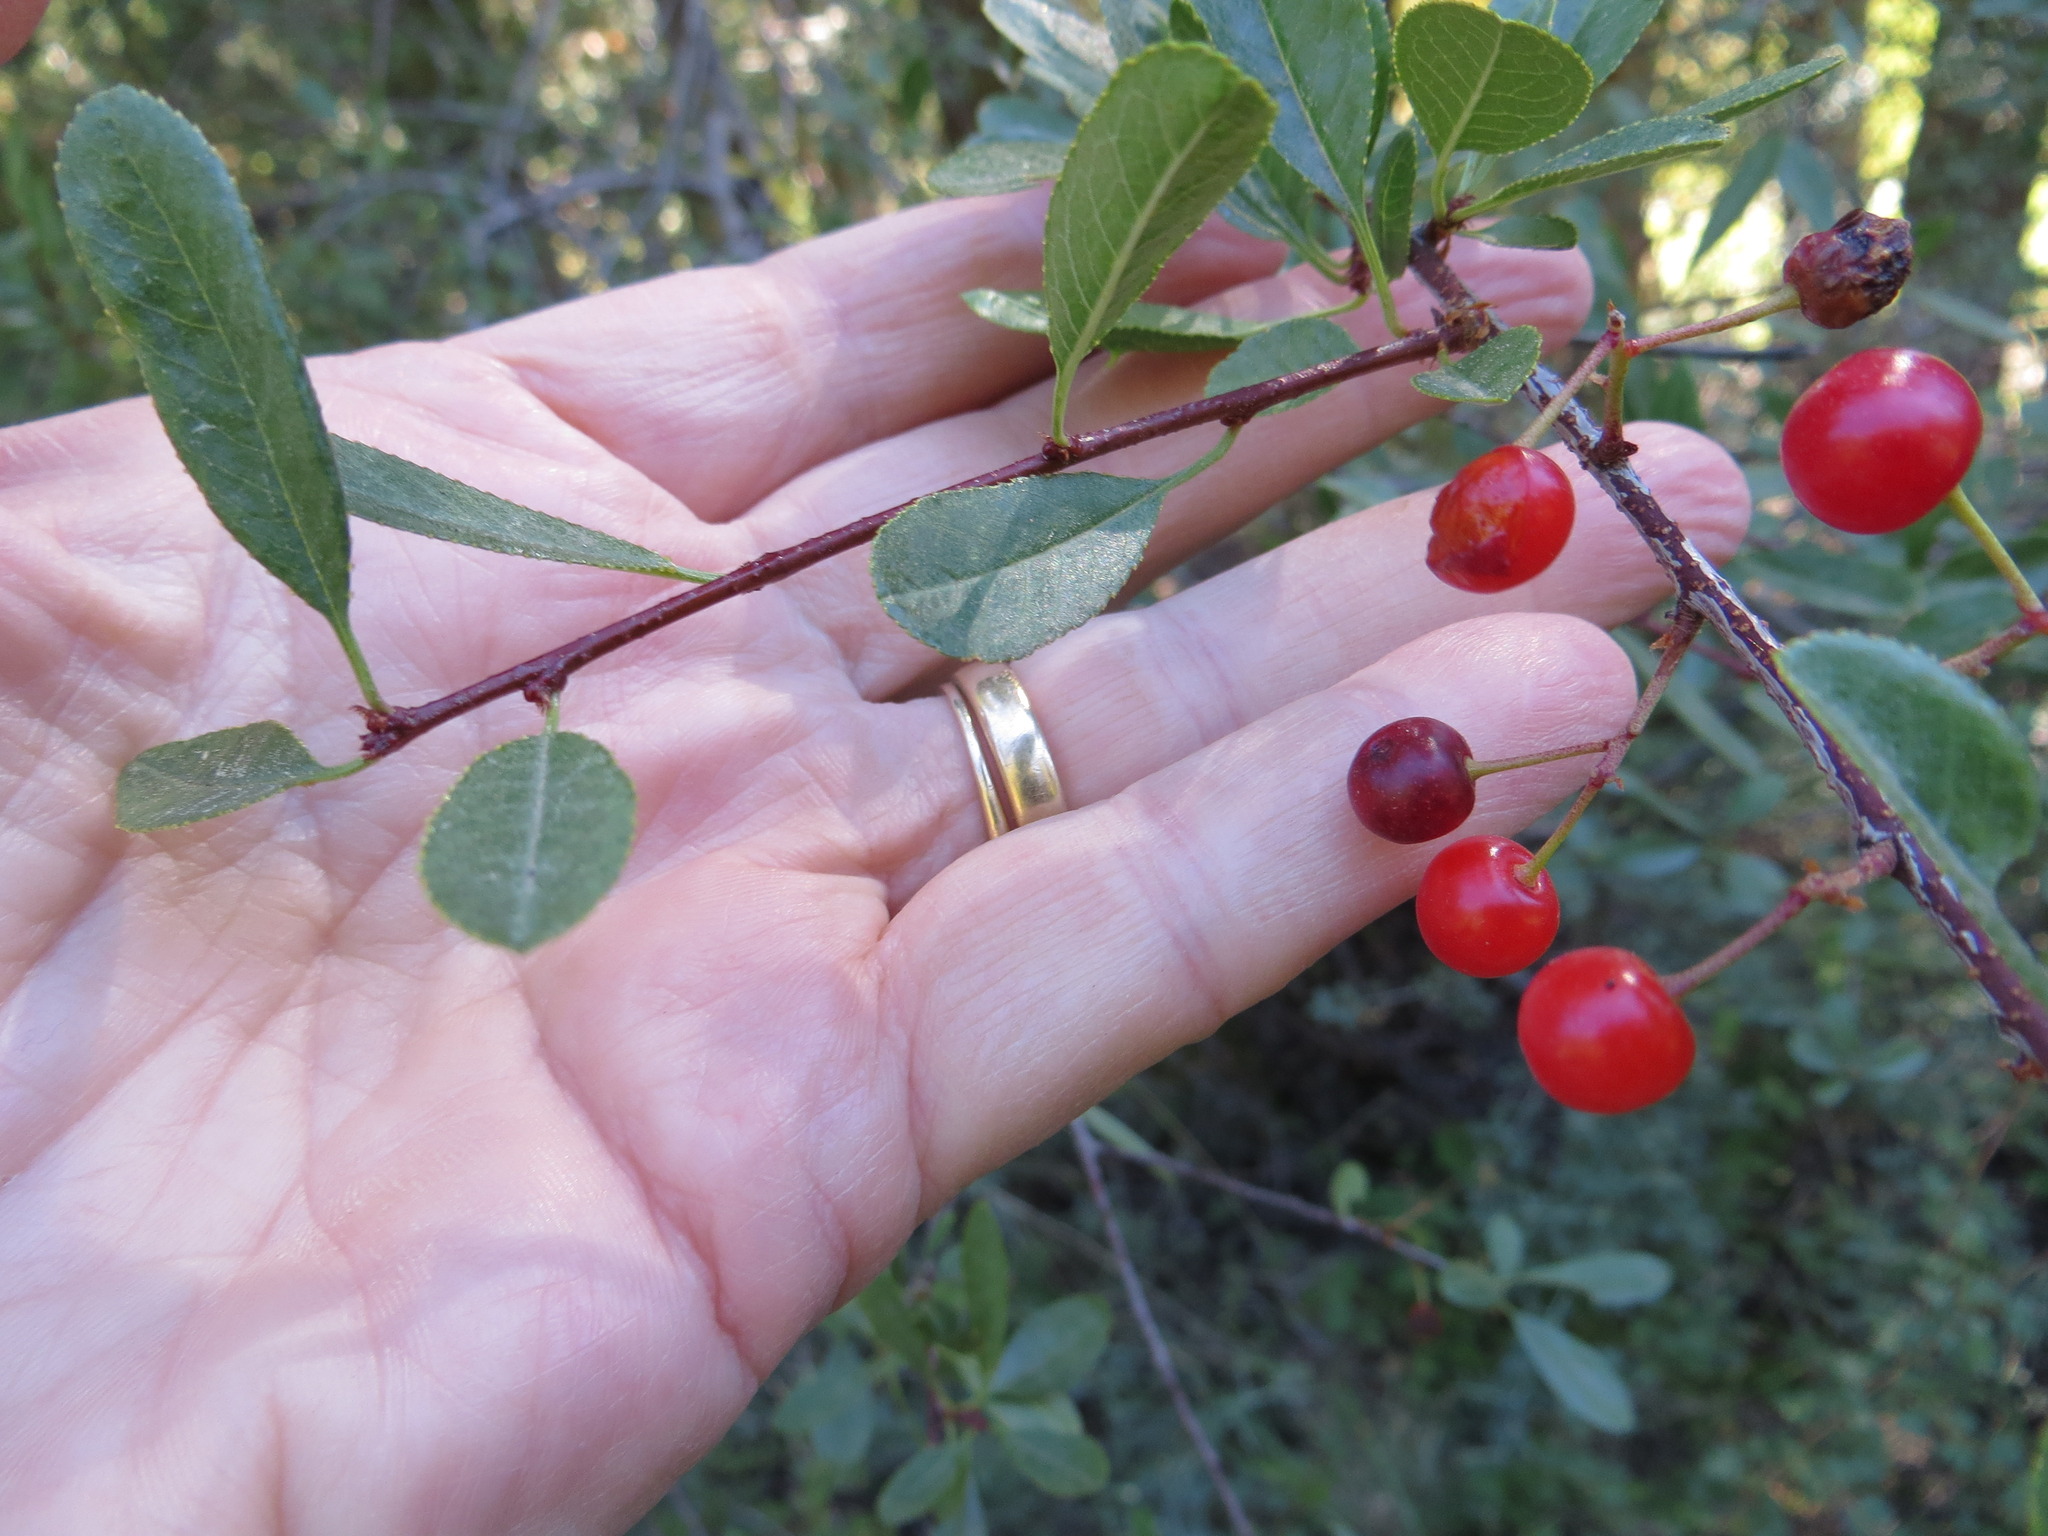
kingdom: Plantae
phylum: Tracheophyta
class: Magnoliopsida
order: Rosales
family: Rosaceae
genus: Prunus
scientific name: Prunus emarginata
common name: Bitter cherry
